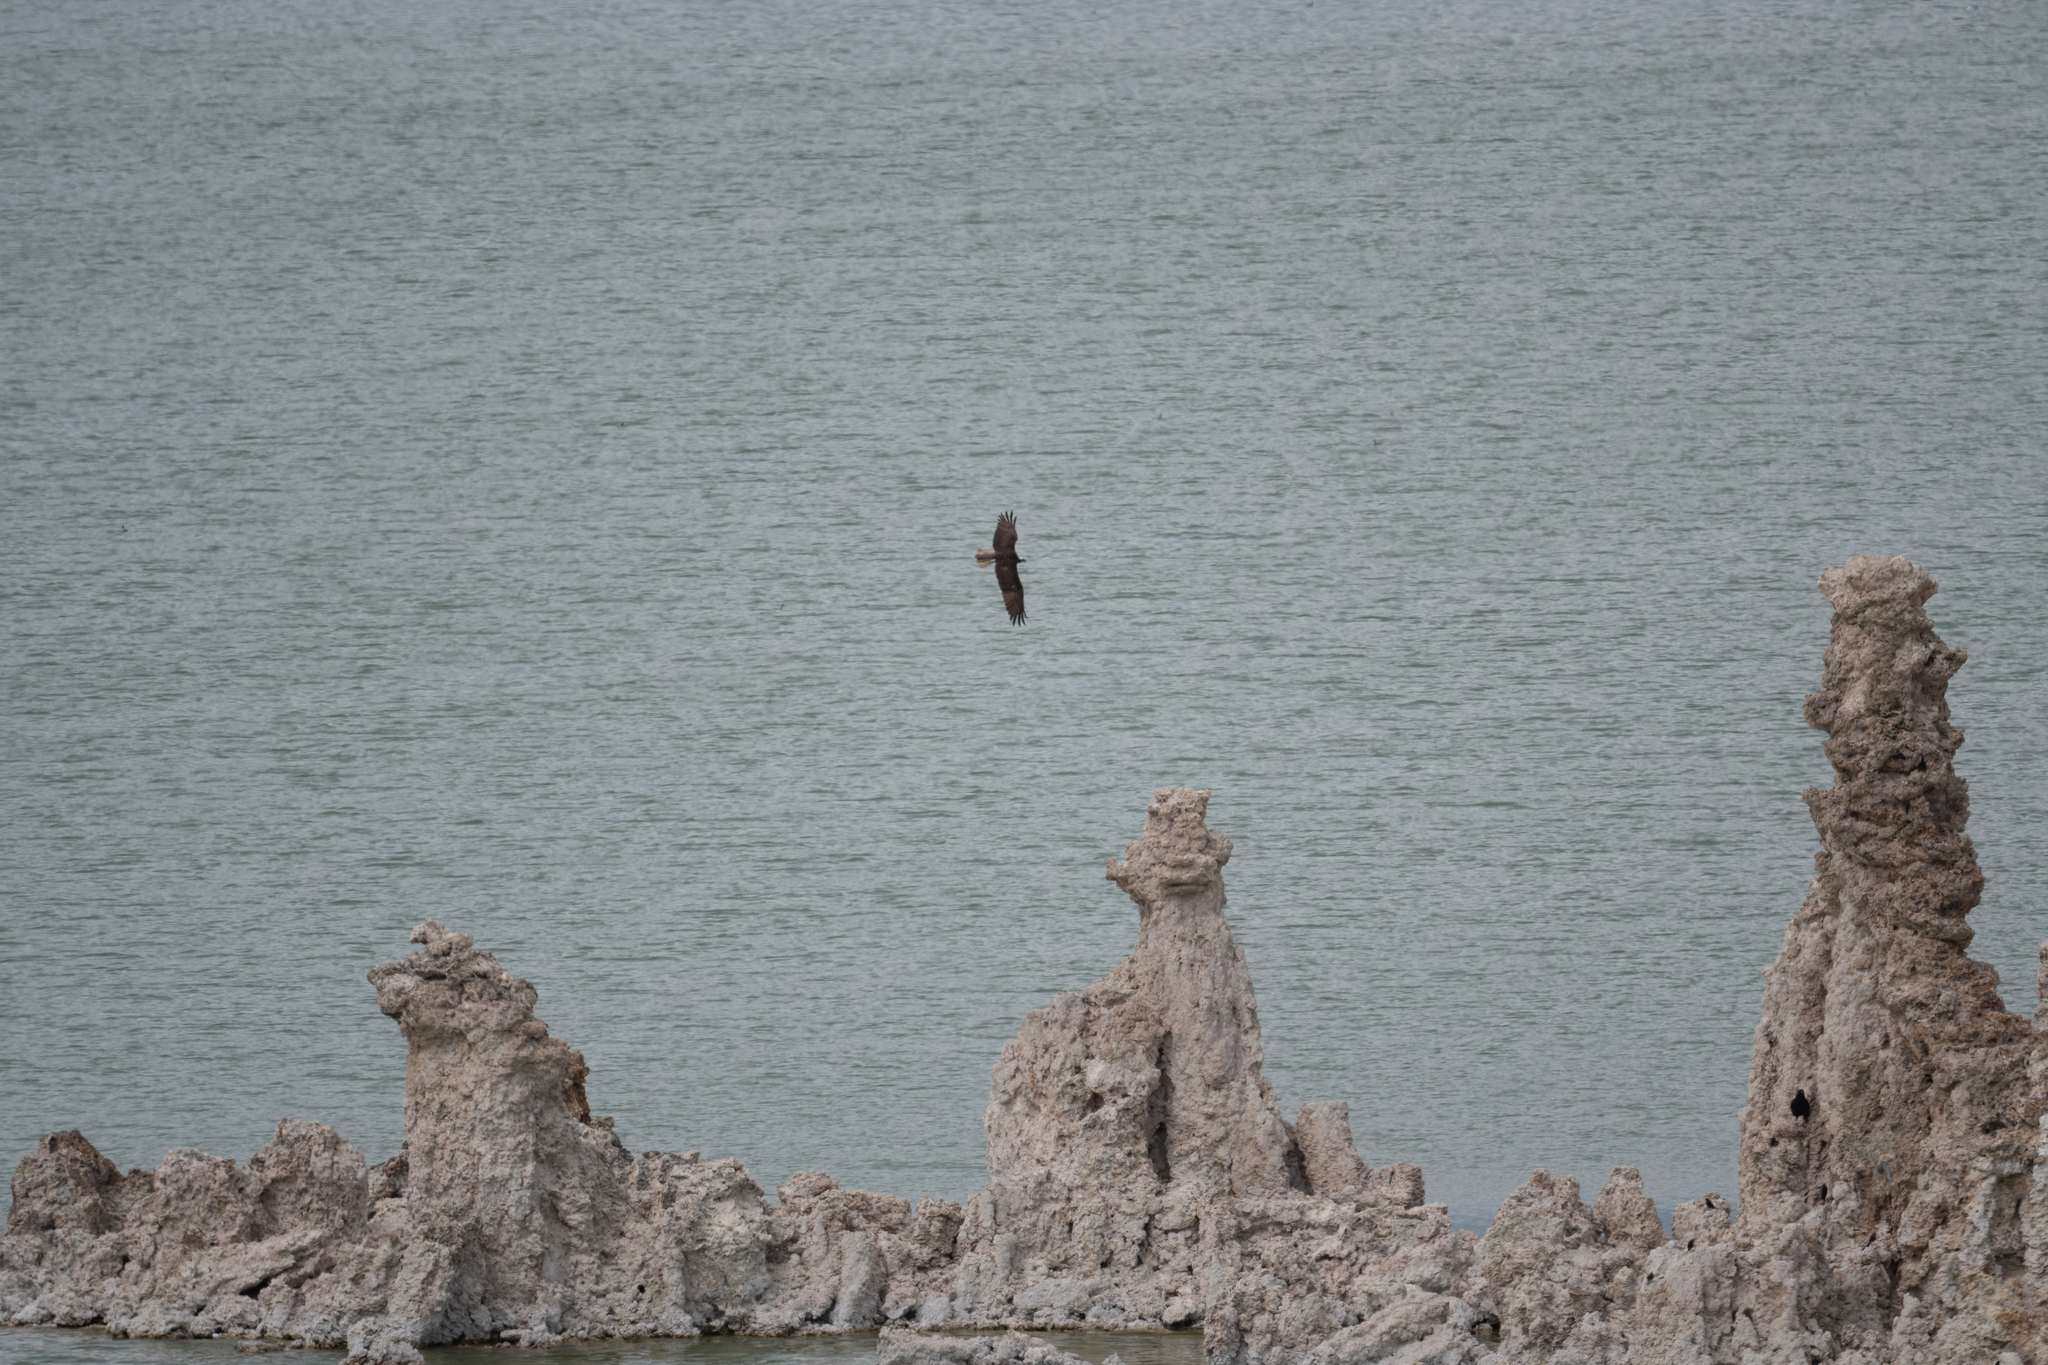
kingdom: Animalia
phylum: Chordata
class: Aves
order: Accipitriformes
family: Pandionidae
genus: Pandion
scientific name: Pandion haliaetus
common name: Osprey
